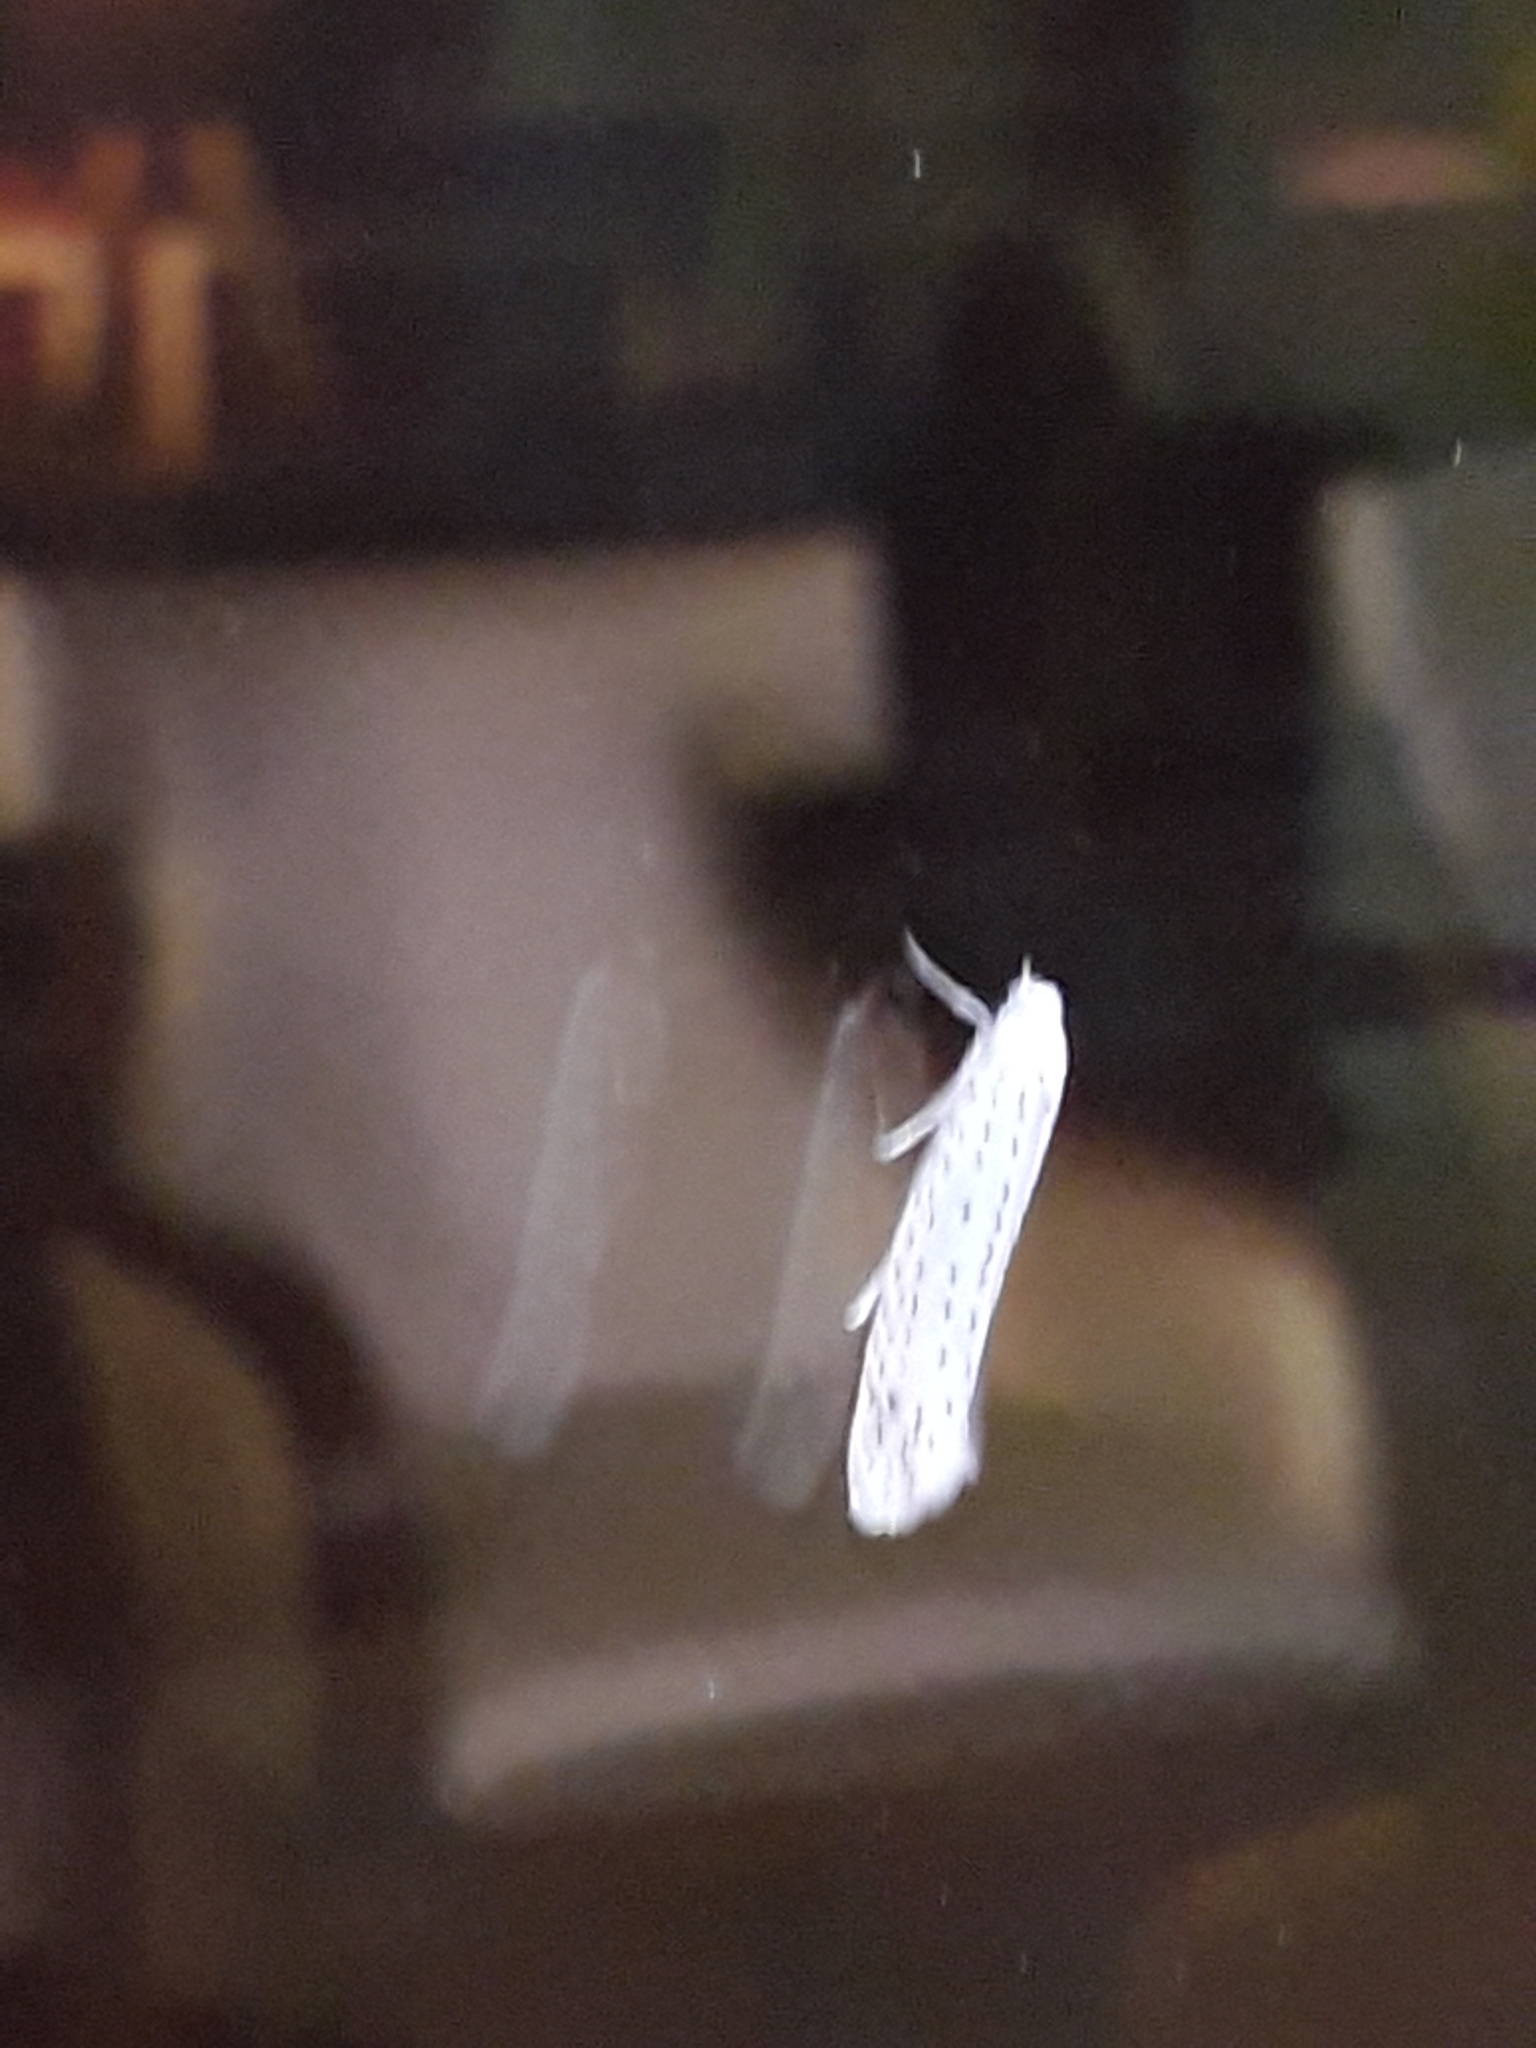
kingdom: Animalia
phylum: Arthropoda
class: Insecta
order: Lepidoptera
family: Yponomeutidae
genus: Yponomeuta
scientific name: Yponomeuta evonymella
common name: Bird-cherry ermine
